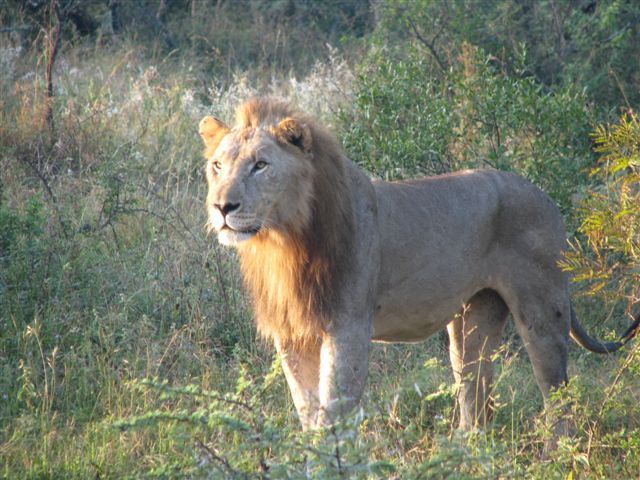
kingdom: Animalia
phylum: Chordata
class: Mammalia
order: Carnivora
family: Felidae
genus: Panthera
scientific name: Panthera leo
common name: Lion
